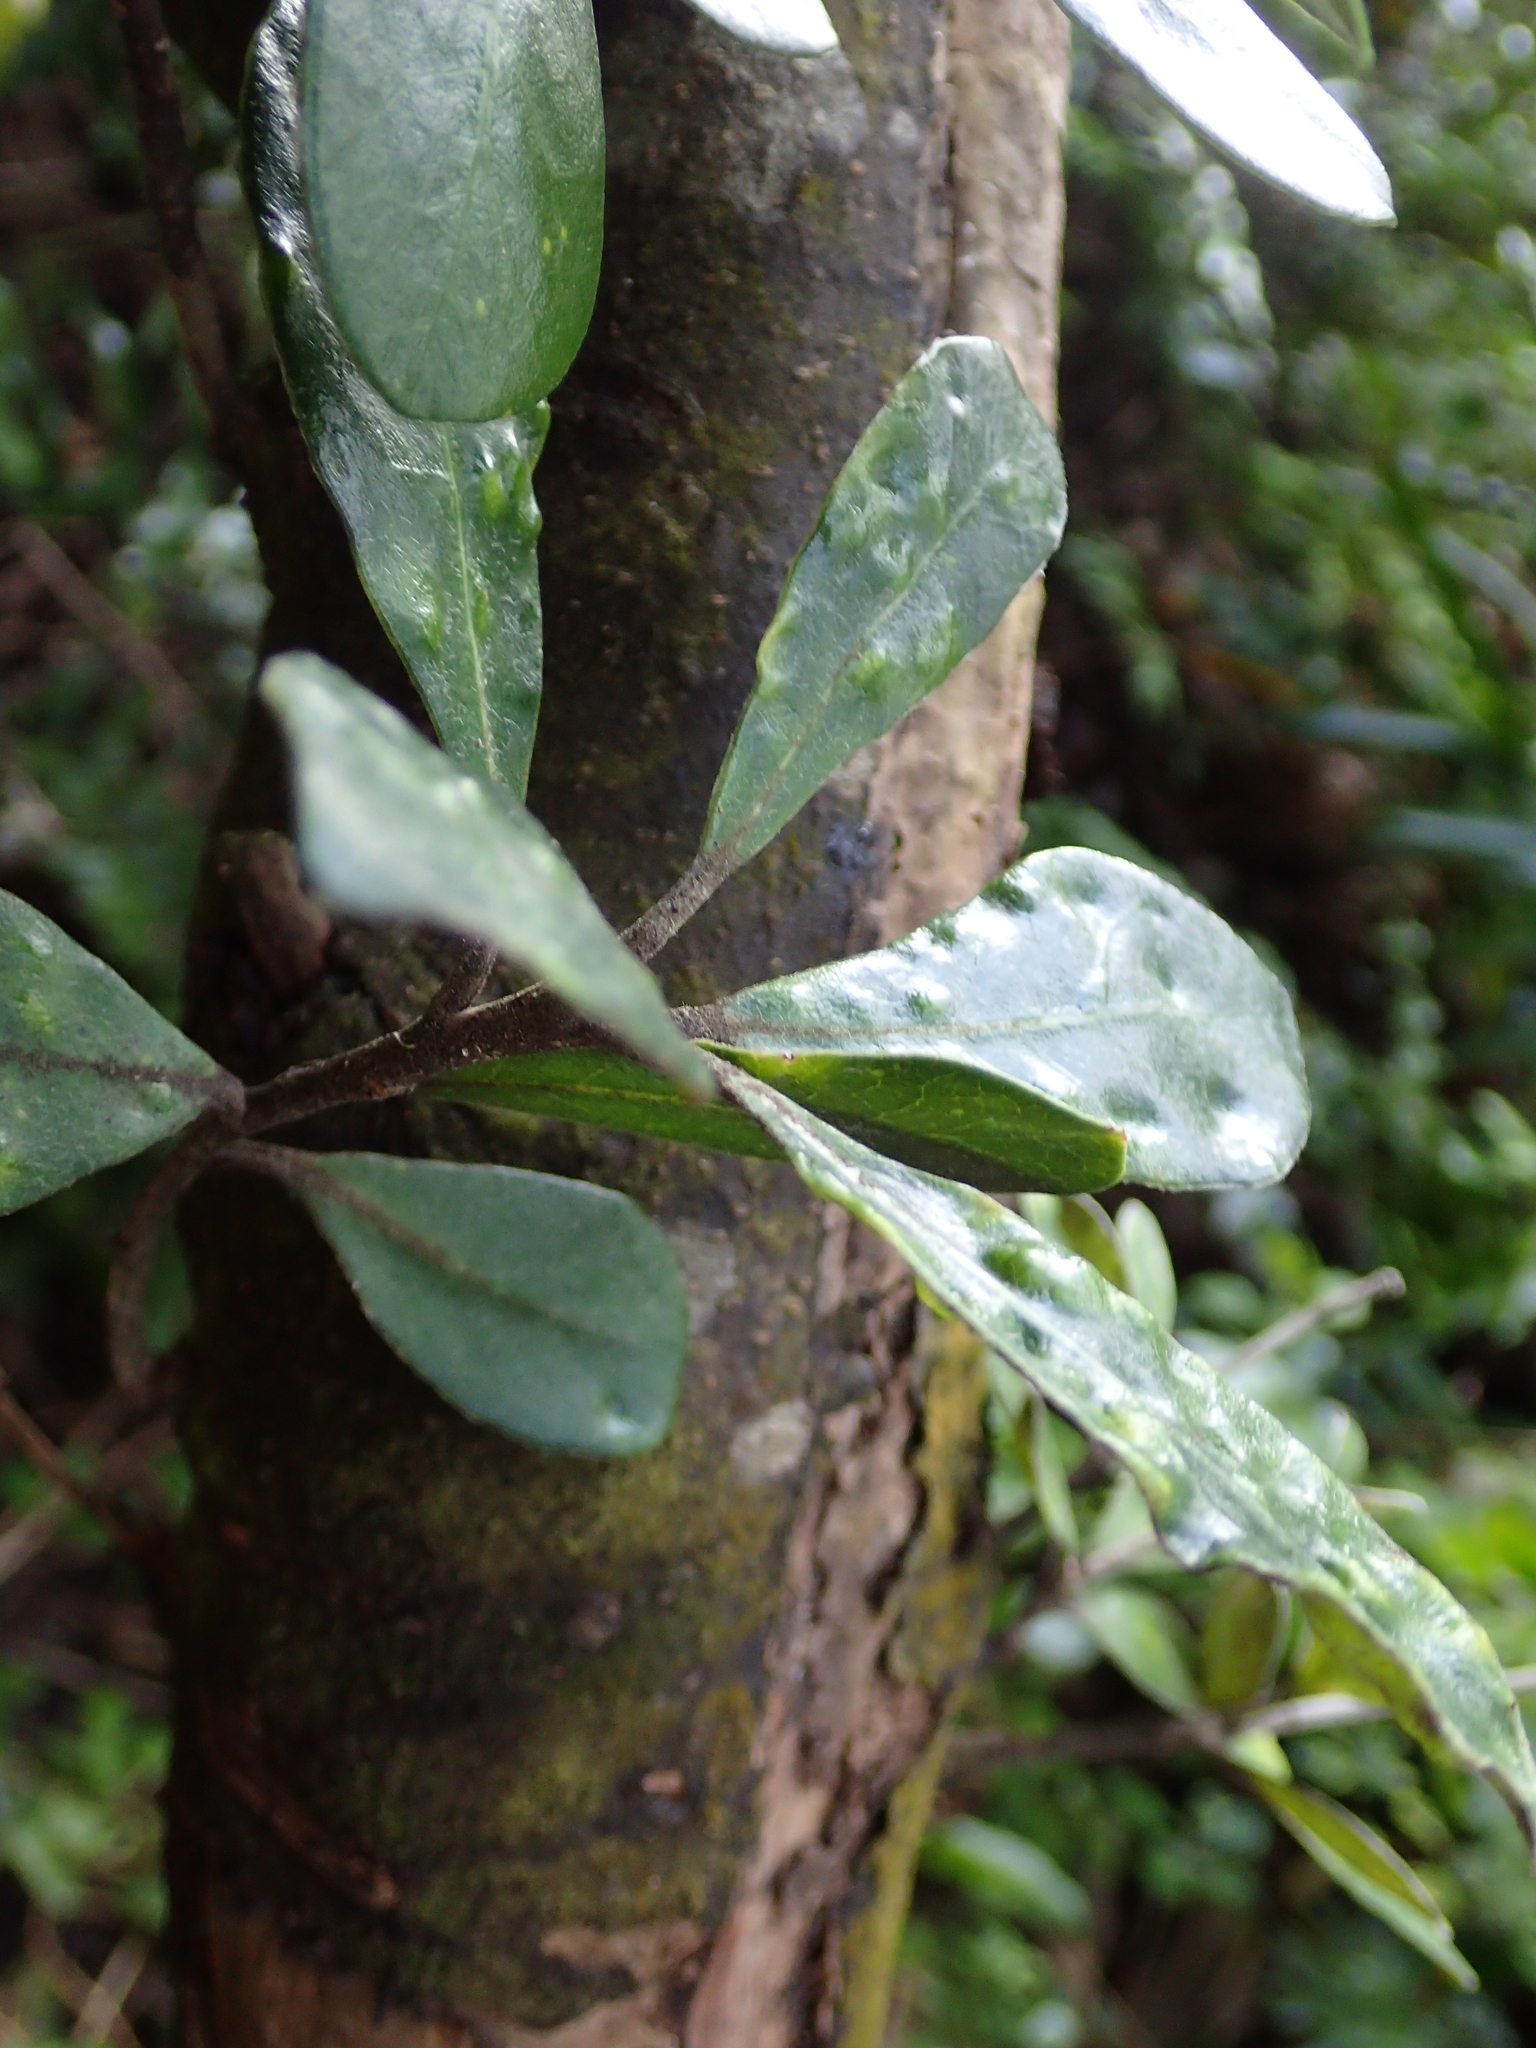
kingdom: Plantae
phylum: Tracheophyta
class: Magnoliopsida
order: Apiales
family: Pittosporaceae
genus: Pittosporum
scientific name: Pittosporum crassifolium
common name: Karo
